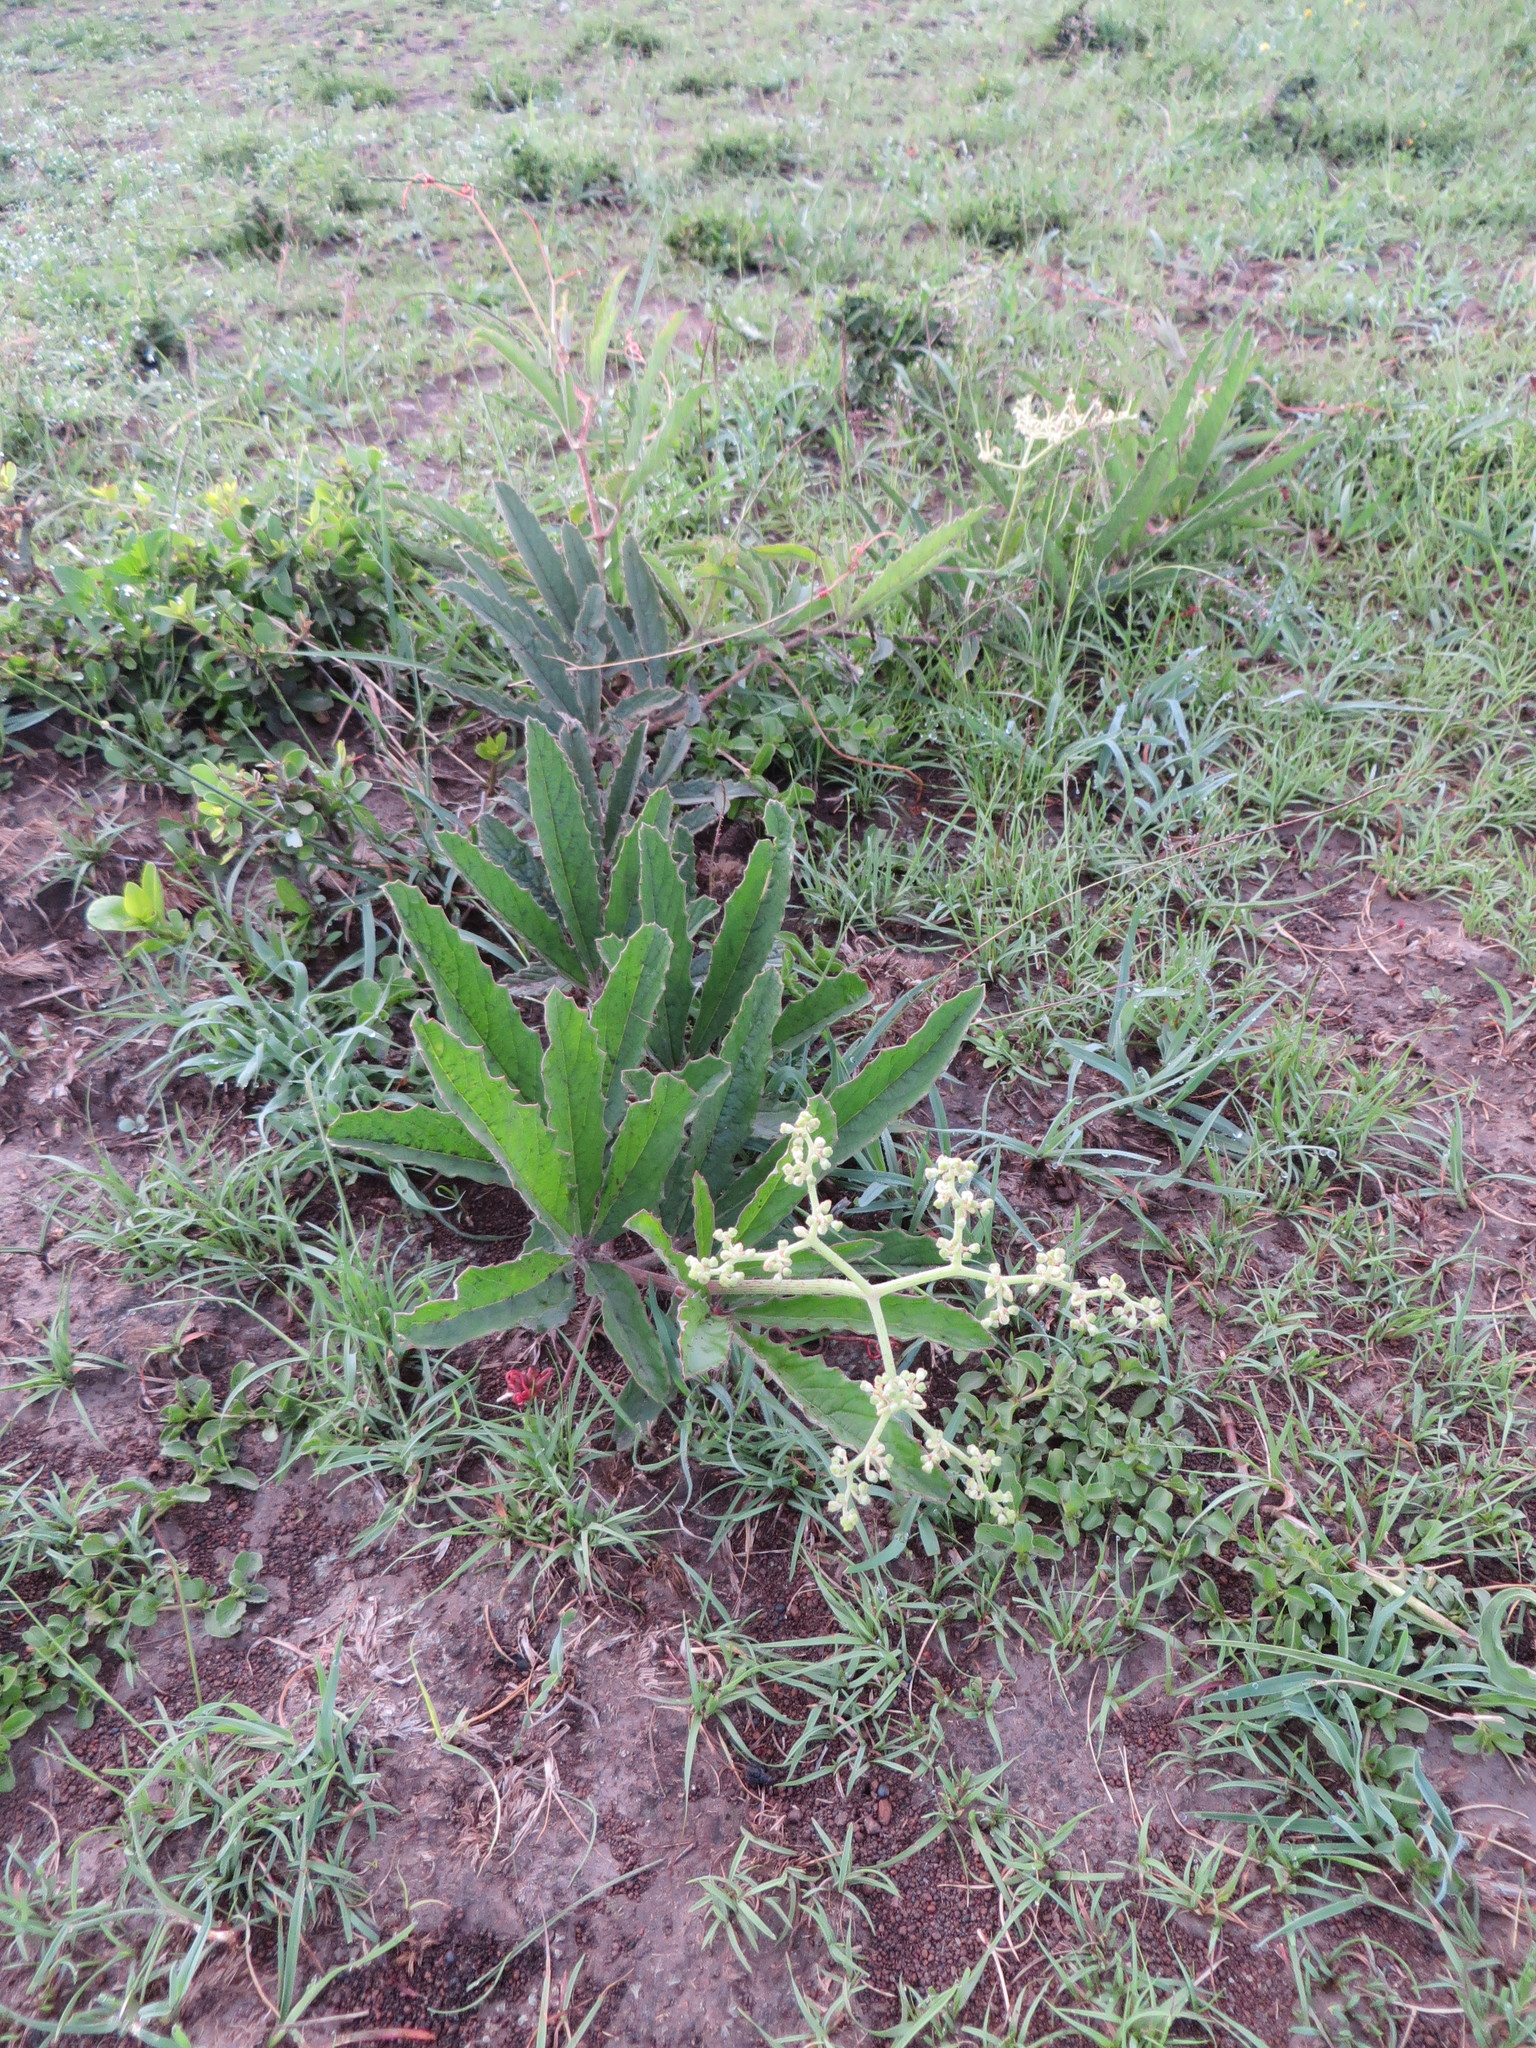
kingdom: Plantae
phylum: Tracheophyta
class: Magnoliopsida
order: Vitales
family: Vitaceae
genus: Cyphostemma
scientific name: Cyphostemma serpens
